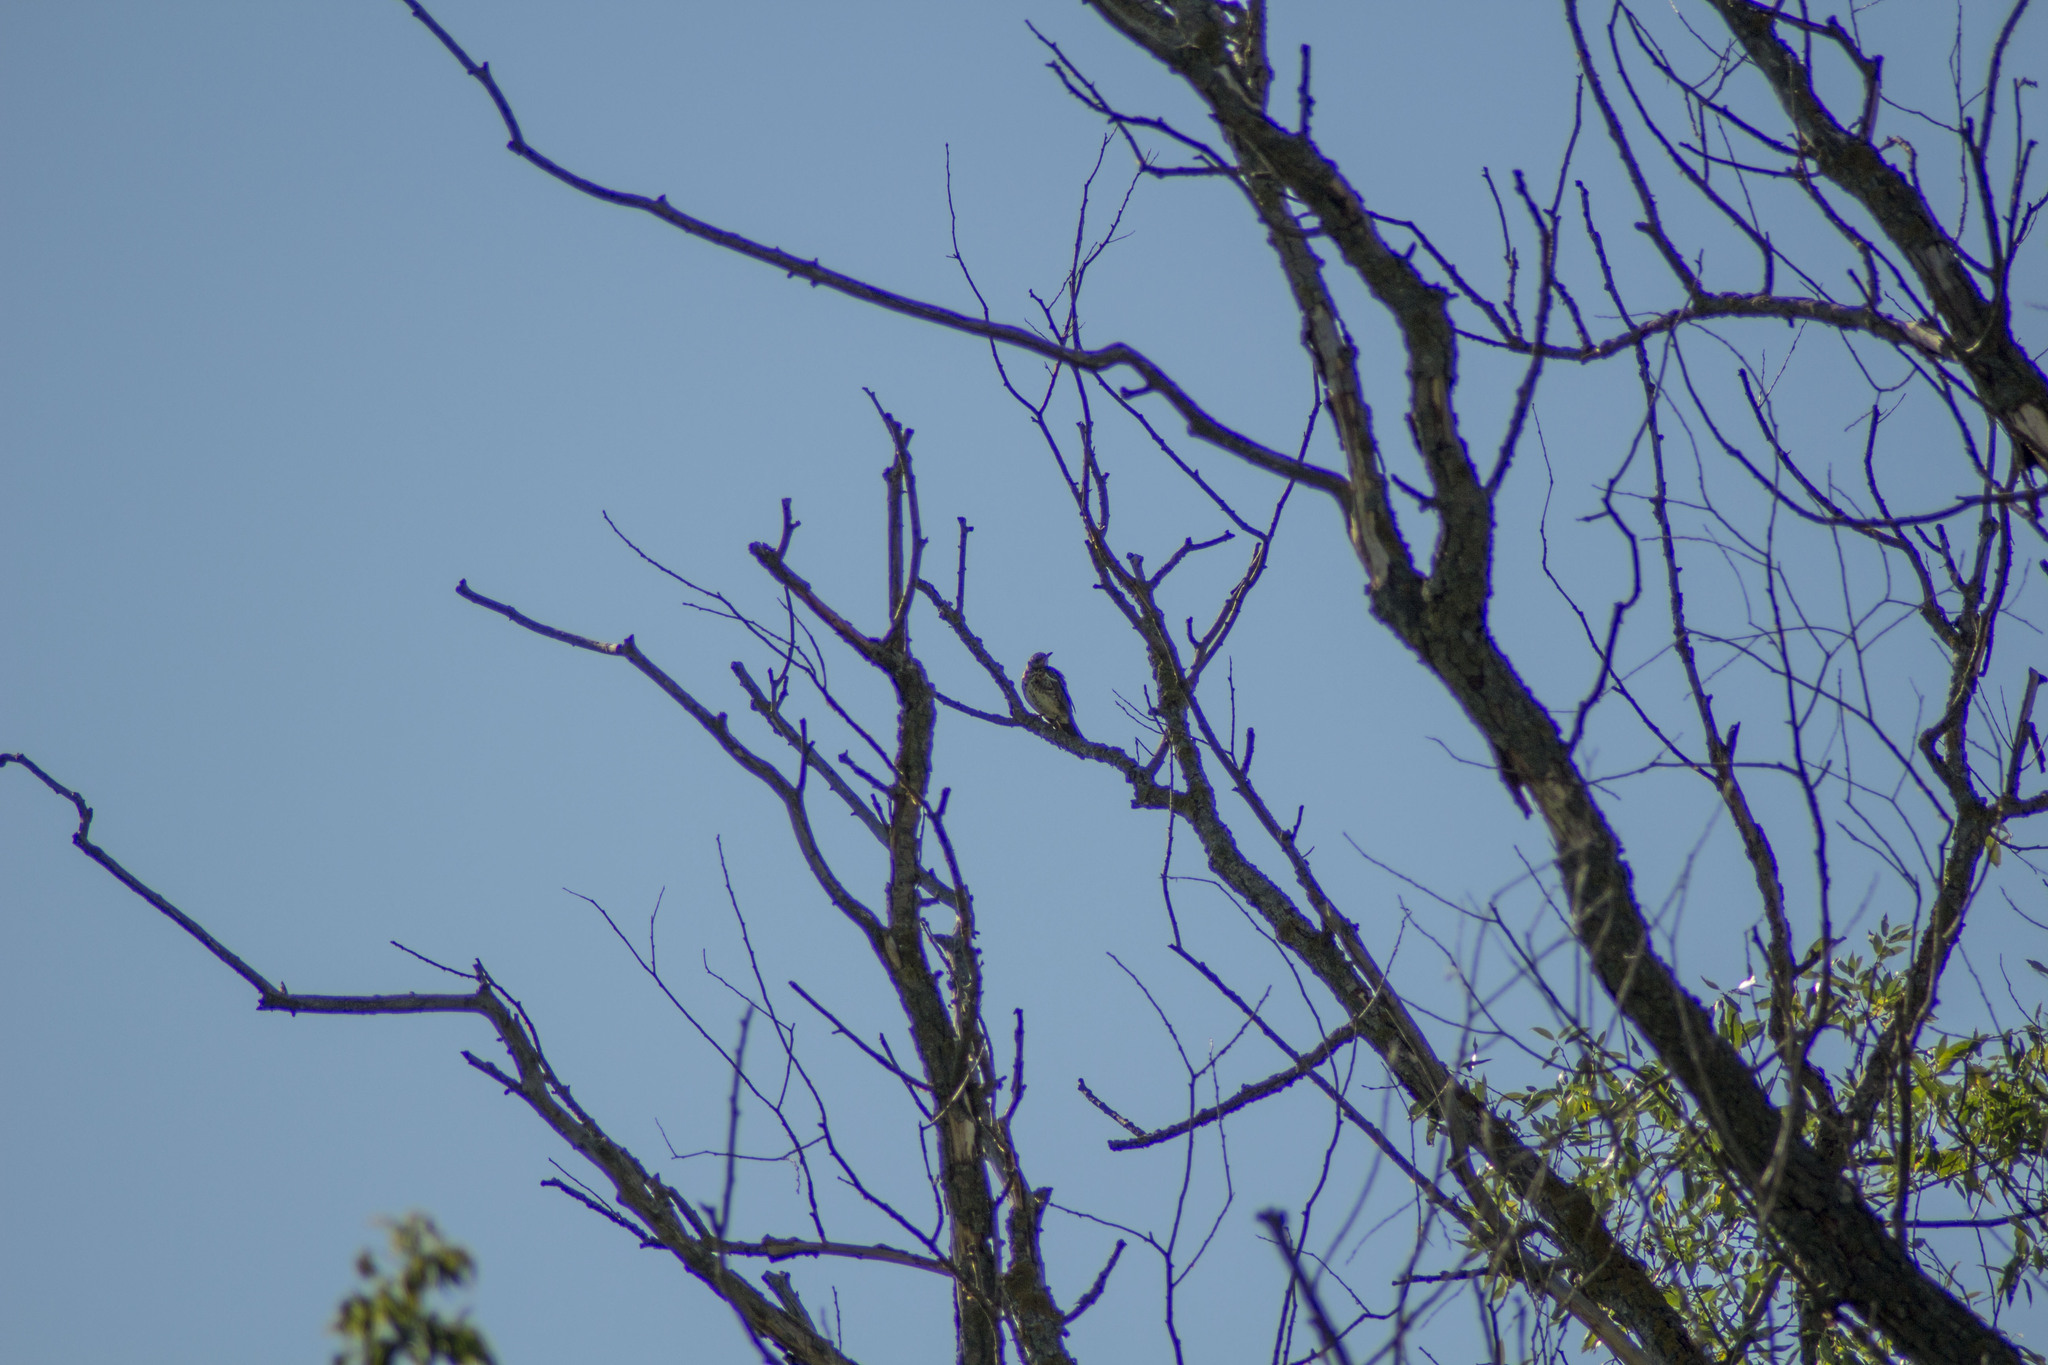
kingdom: Animalia
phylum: Chordata
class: Aves
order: Passeriformes
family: Turdidae
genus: Turdus
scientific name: Turdus viscivorus
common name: Mistle thrush
